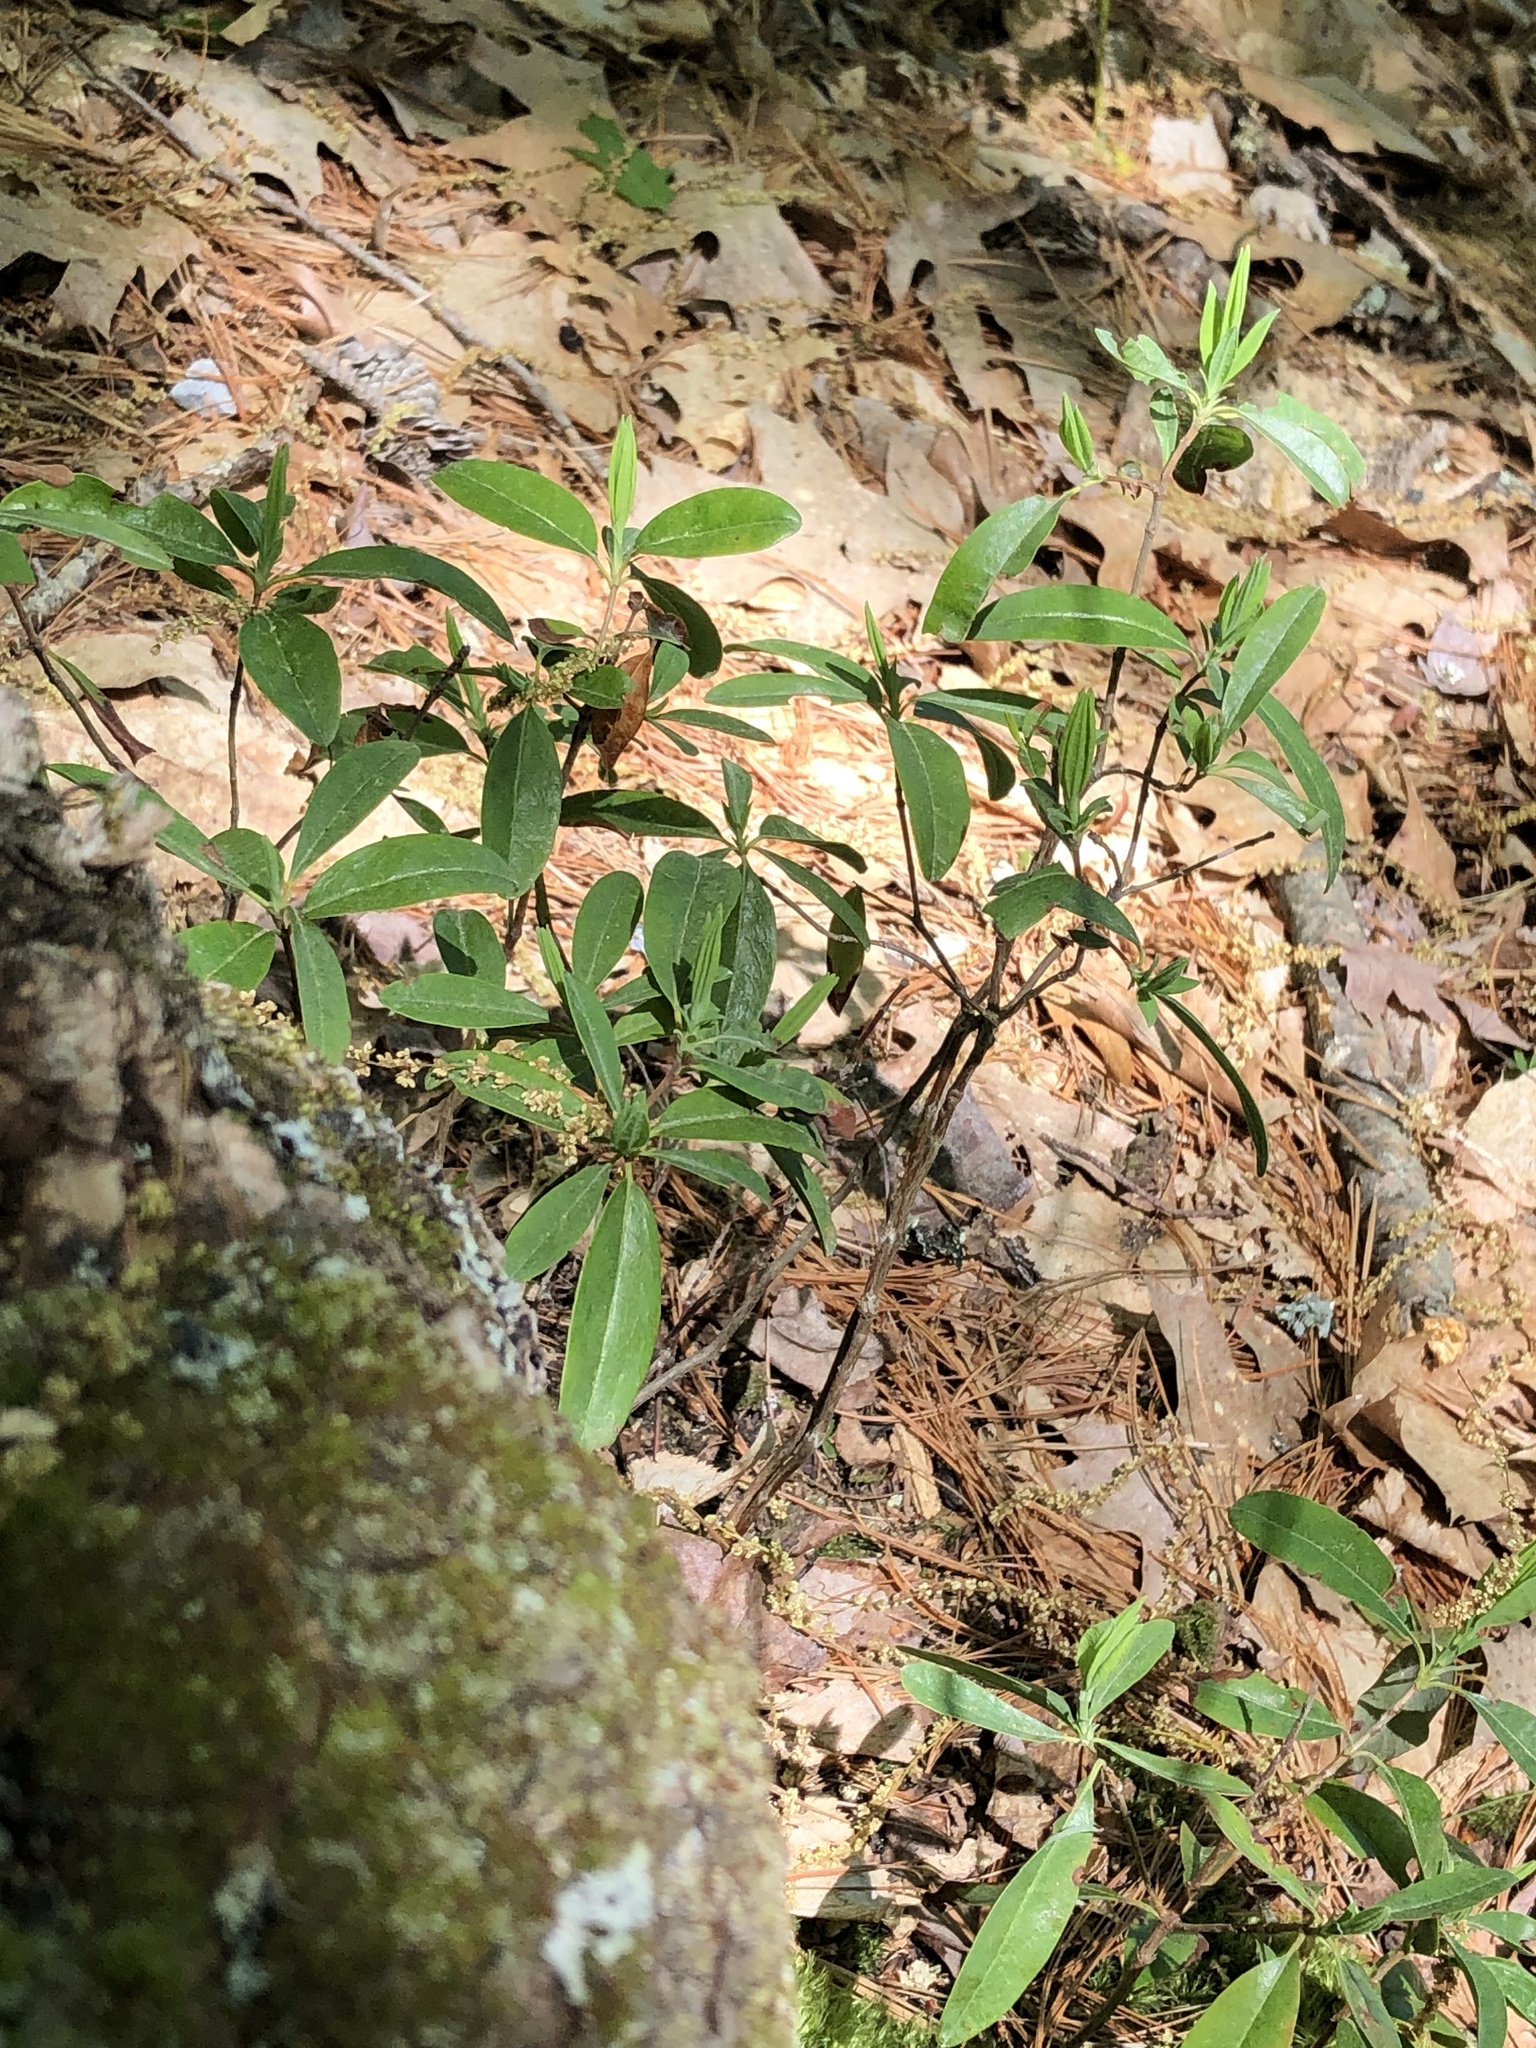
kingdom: Plantae
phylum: Tracheophyta
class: Magnoliopsida
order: Ericales
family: Ericaceae
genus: Kalmia
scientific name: Kalmia angustifolia
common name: Sheep-laurel
